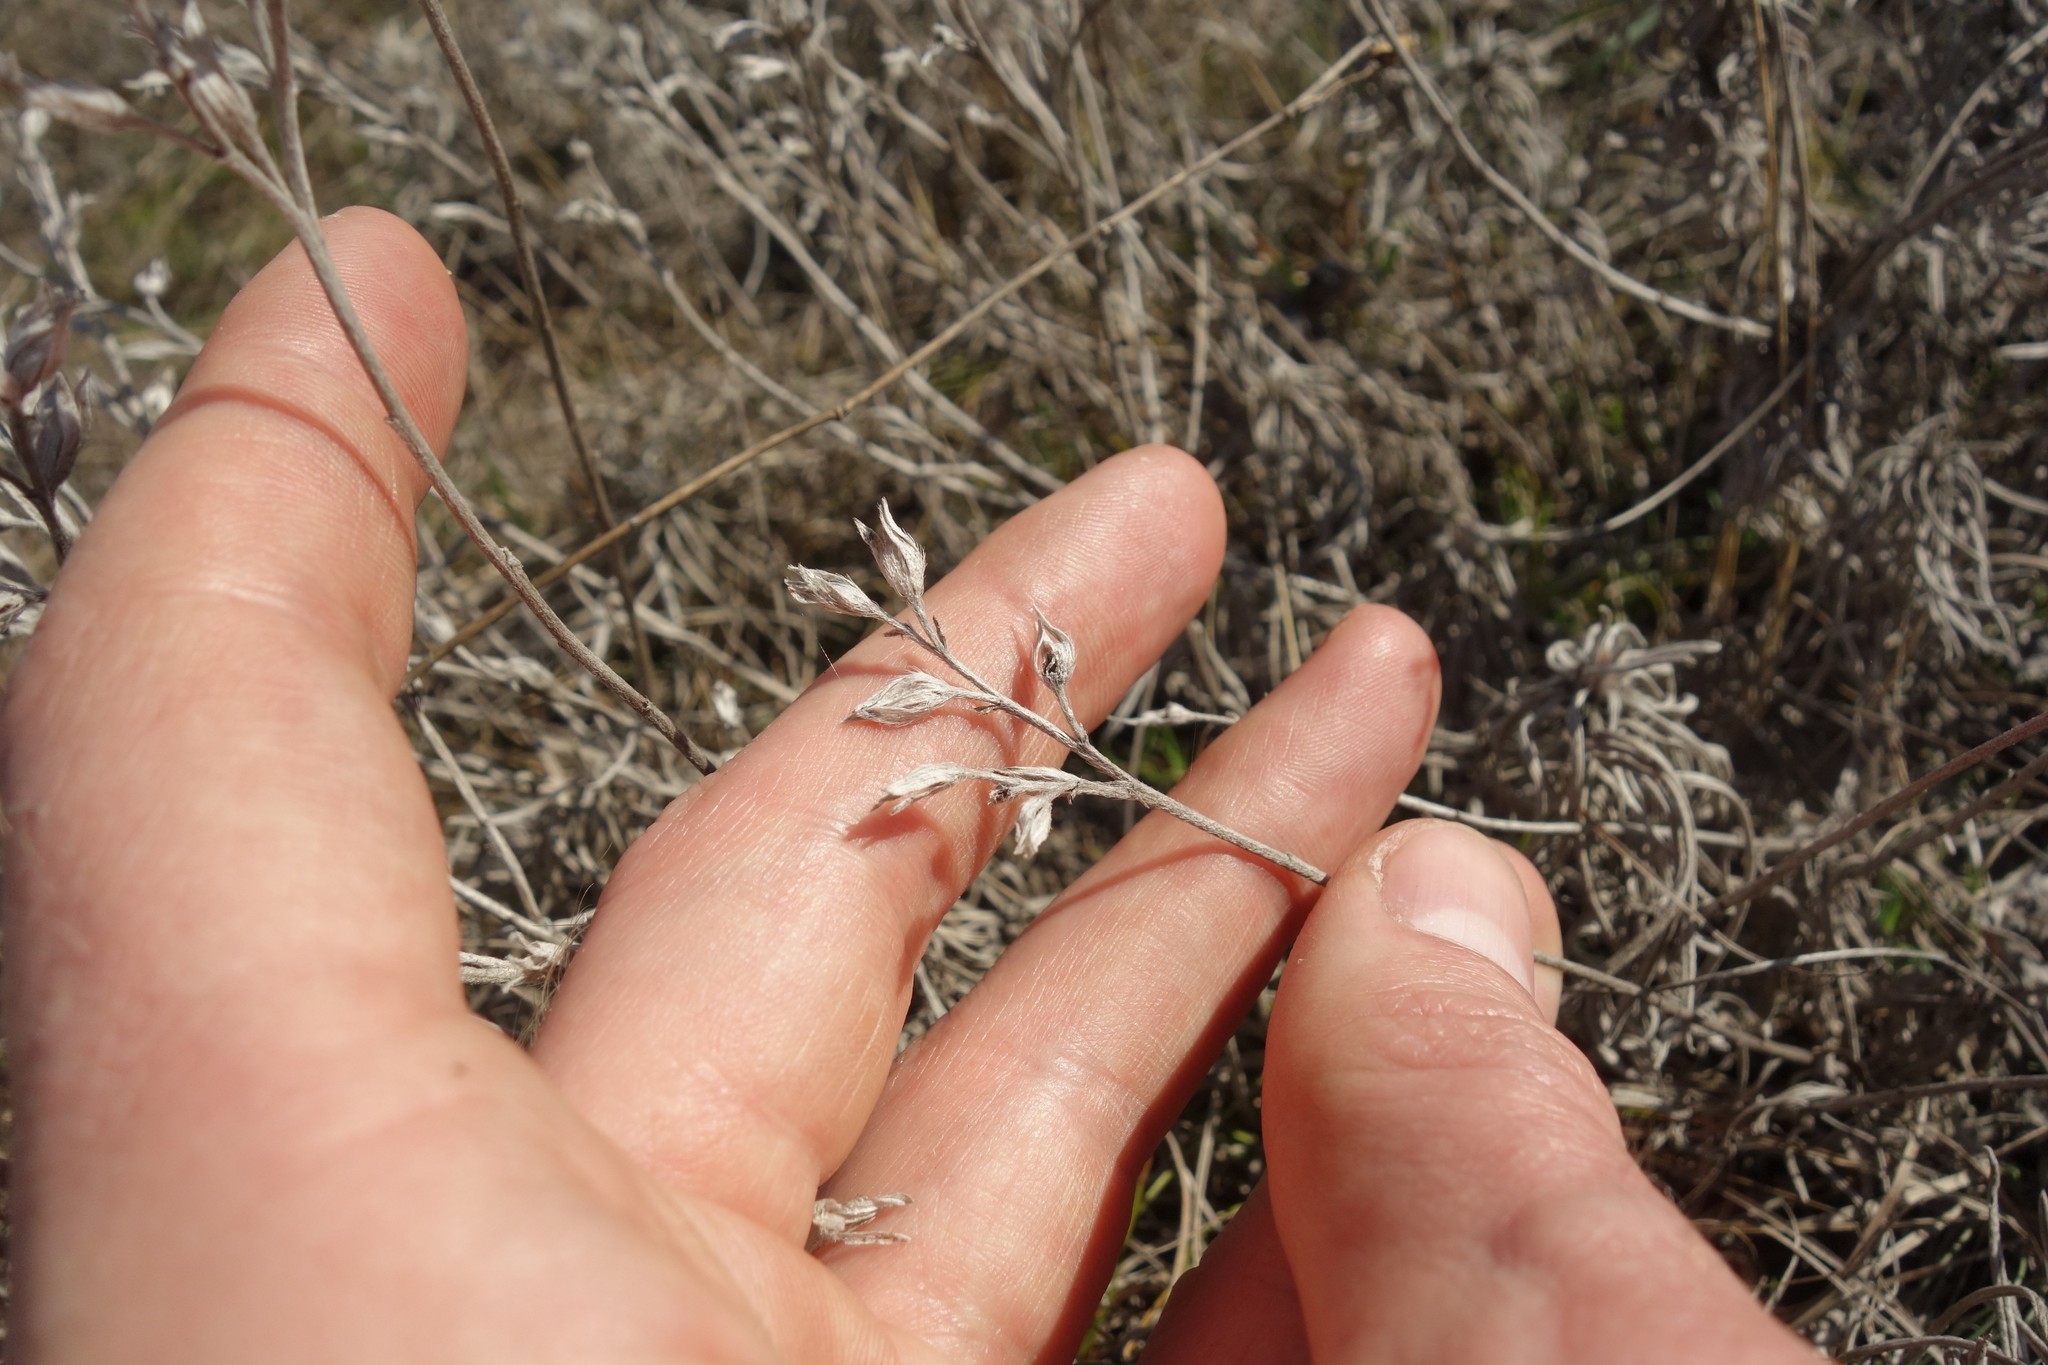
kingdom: Plantae
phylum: Tracheophyta
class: Magnoliopsida
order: Boraginales
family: Boraginaceae
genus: Onosma
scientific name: Onosma simplicissima
